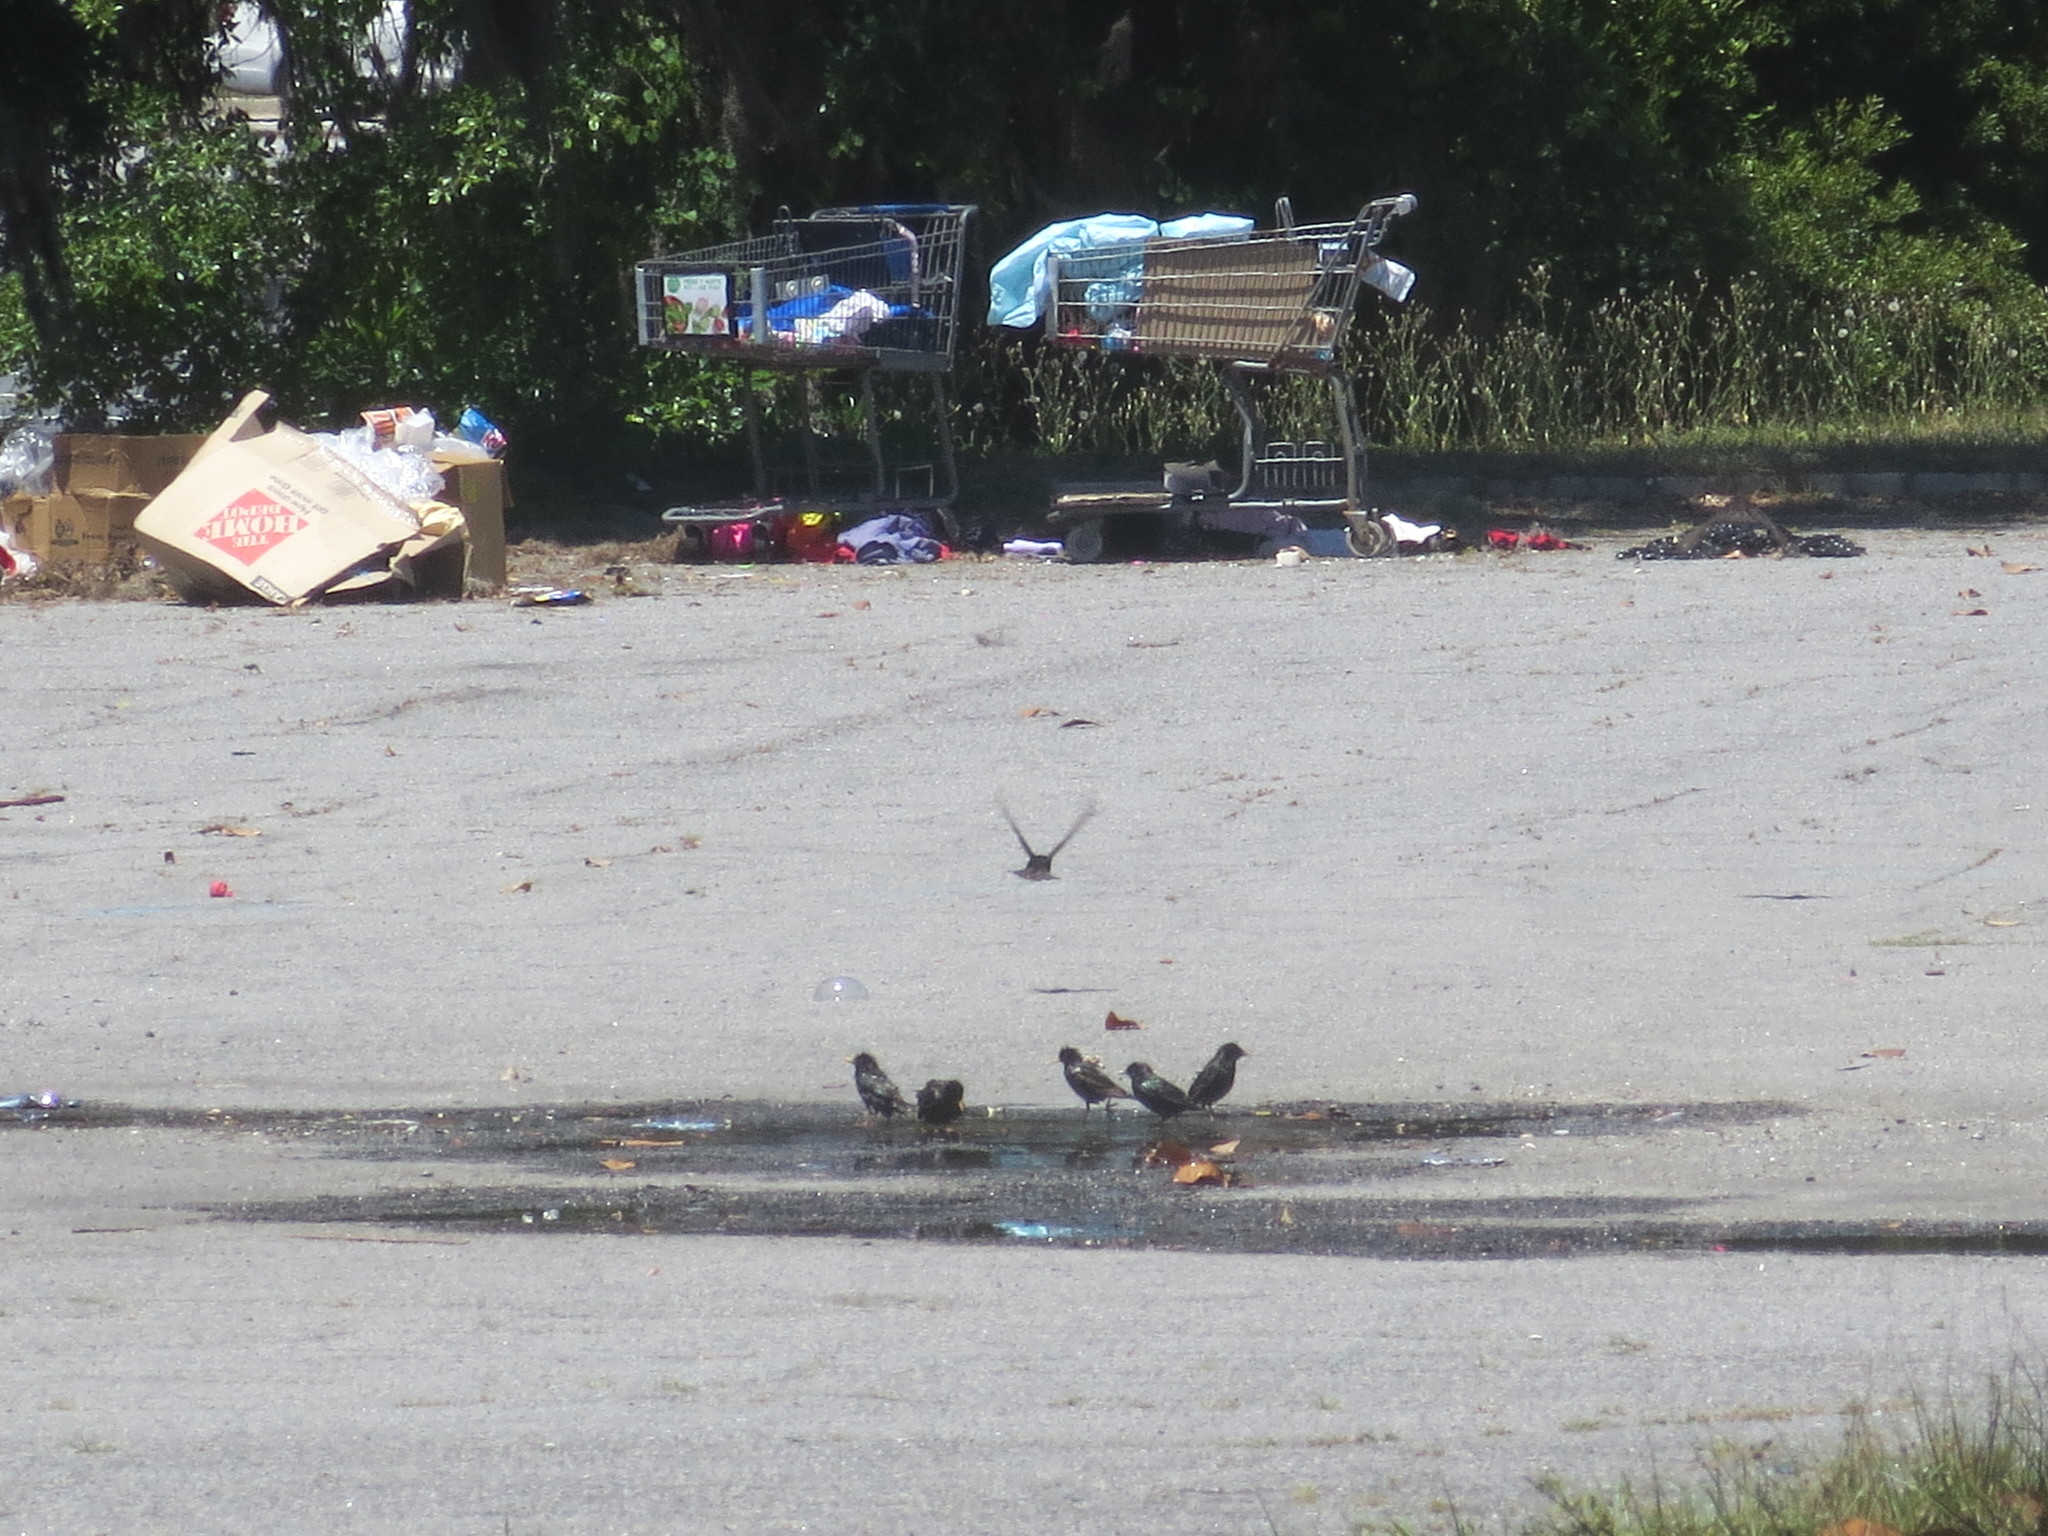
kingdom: Animalia
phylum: Chordata
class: Aves
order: Passeriformes
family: Sturnidae
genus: Sturnus
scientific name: Sturnus vulgaris
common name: Common starling
